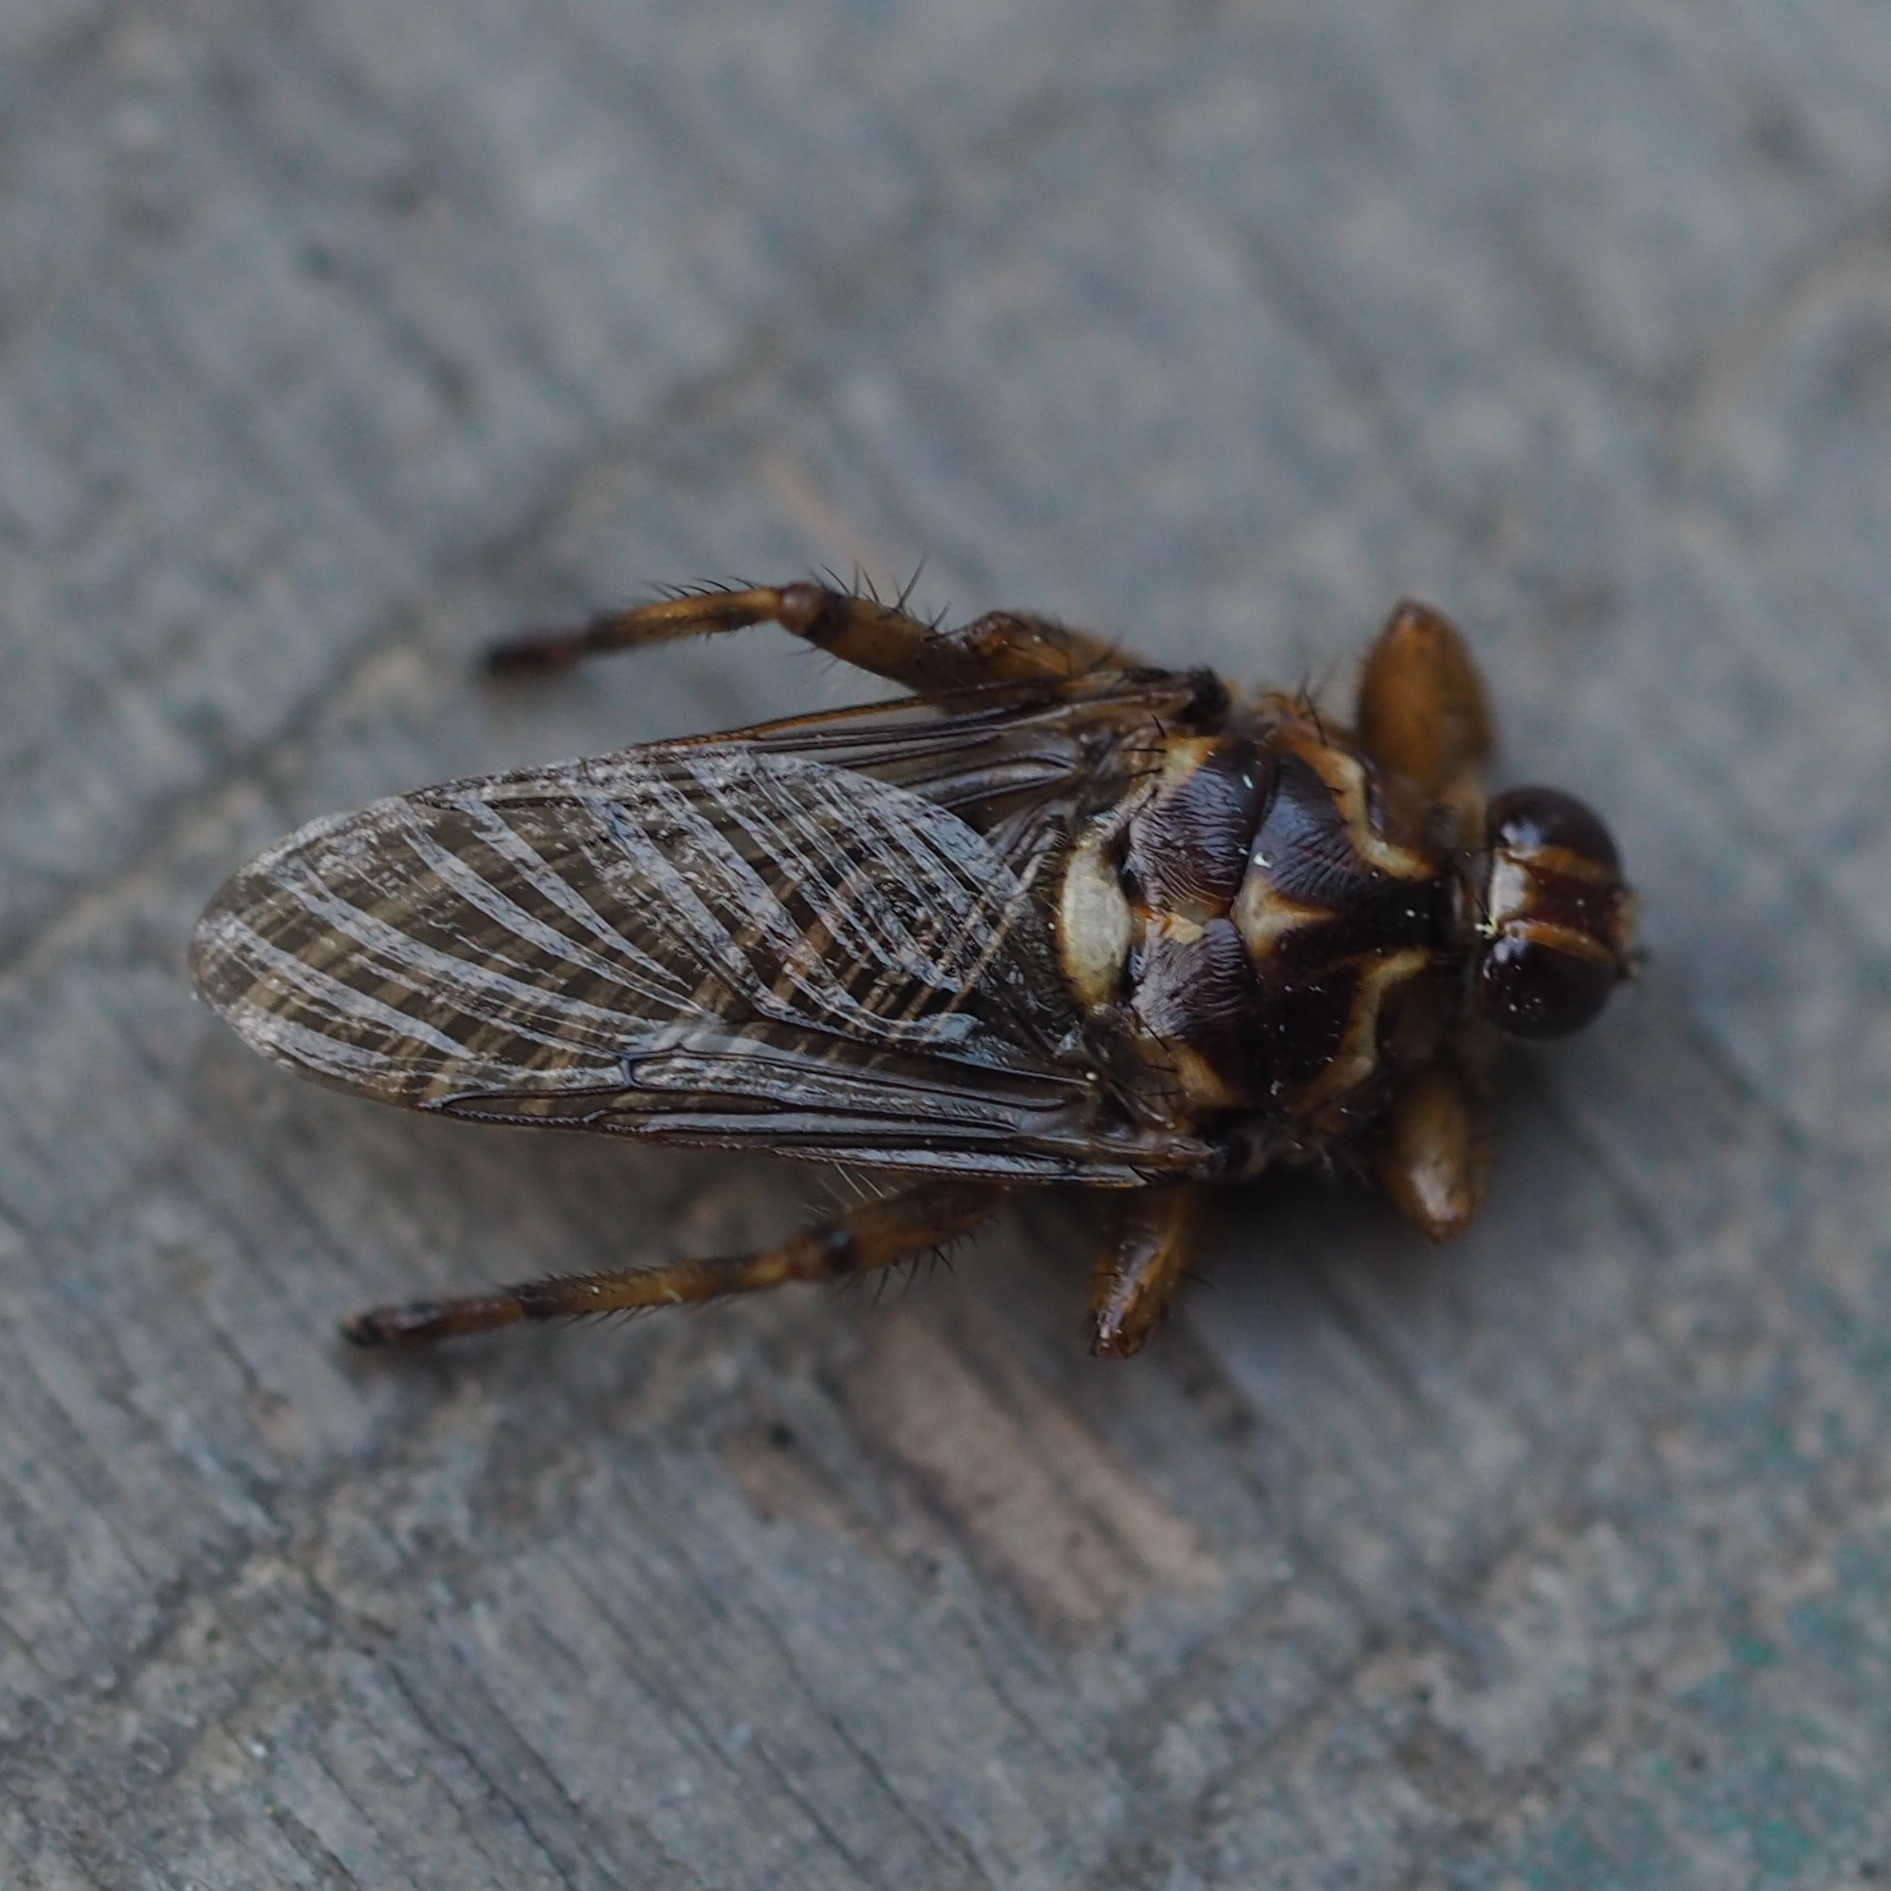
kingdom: Animalia
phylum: Arthropoda
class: Insecta
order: Diptera
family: Hippoboscidae
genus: Hippobosca
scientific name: Hippobosca equina
